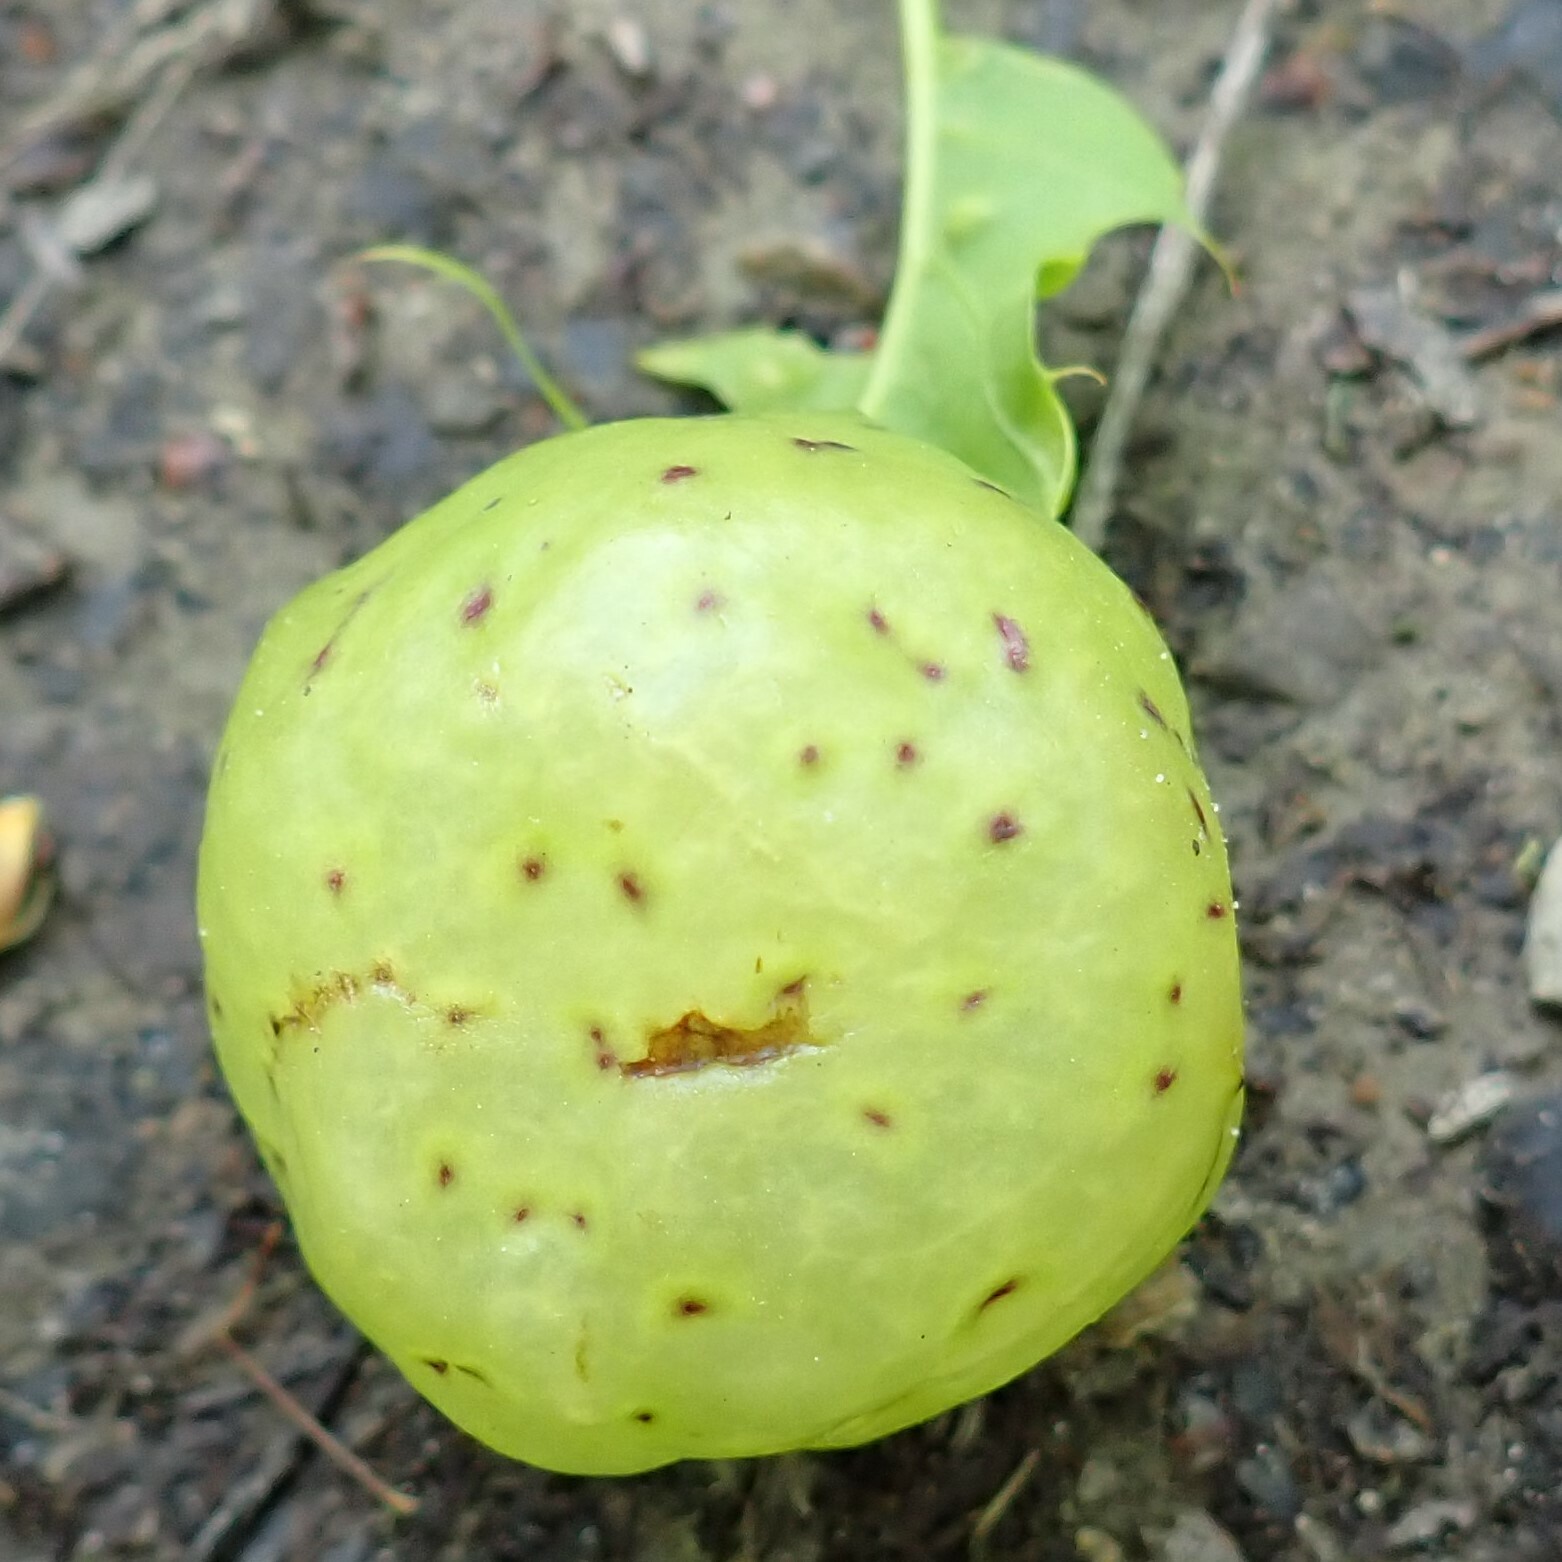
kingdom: Animalia
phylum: Arthropoda
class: Insecta
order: Hymenoptera
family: Cynipidae
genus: Amphibolips
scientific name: Amphibolips
